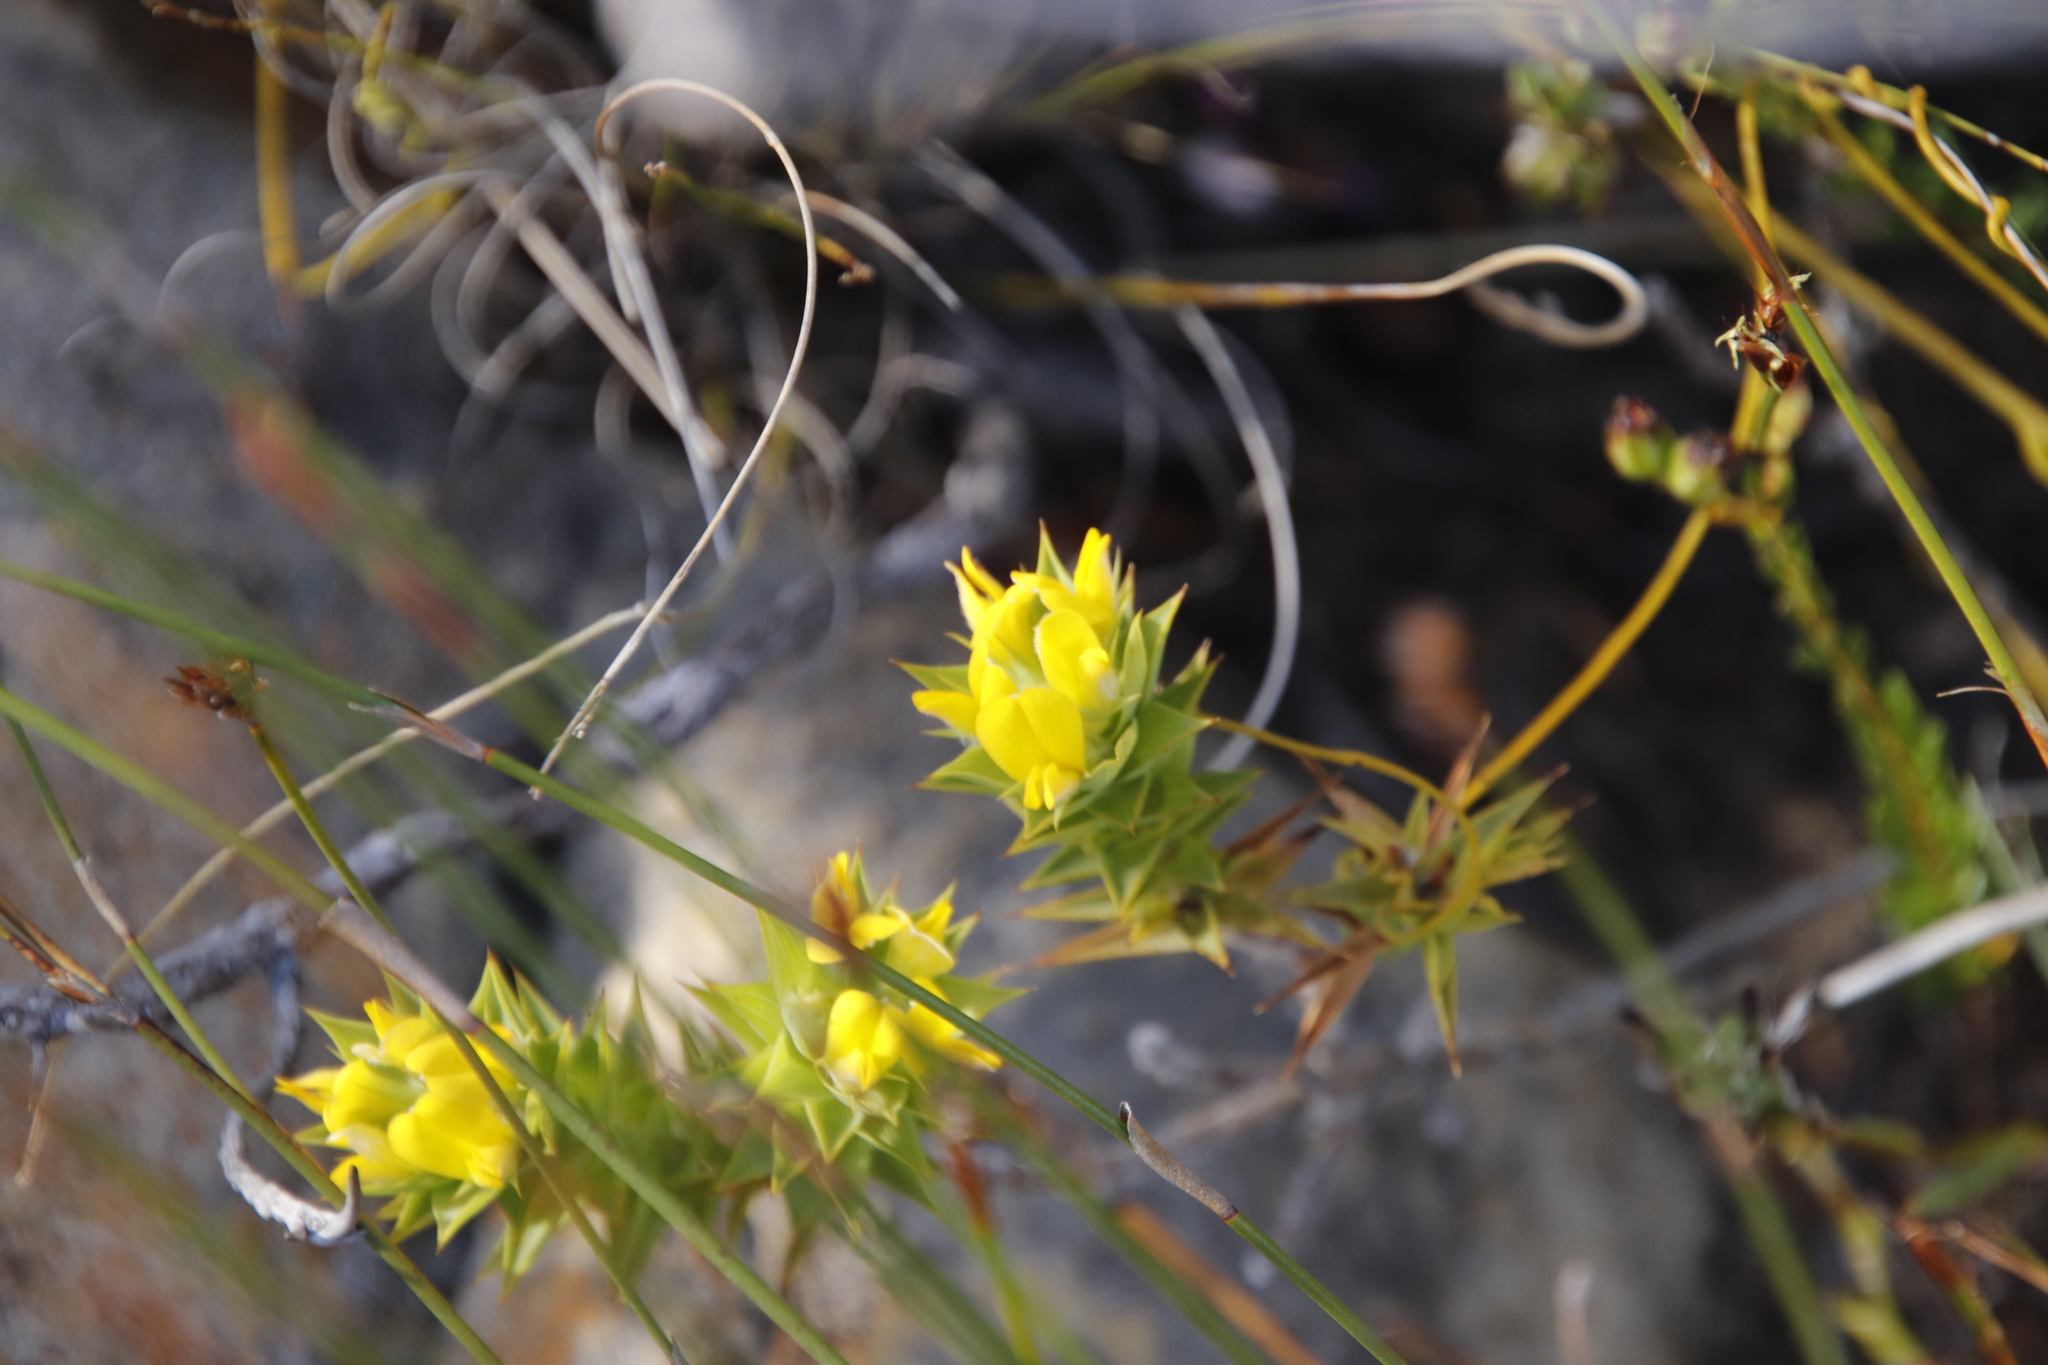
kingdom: Plantae
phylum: Tracheophyta
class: Magnoliopsida
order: Fabales
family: Fabaceae
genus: Aspalathus
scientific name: Aspalathus cordata
